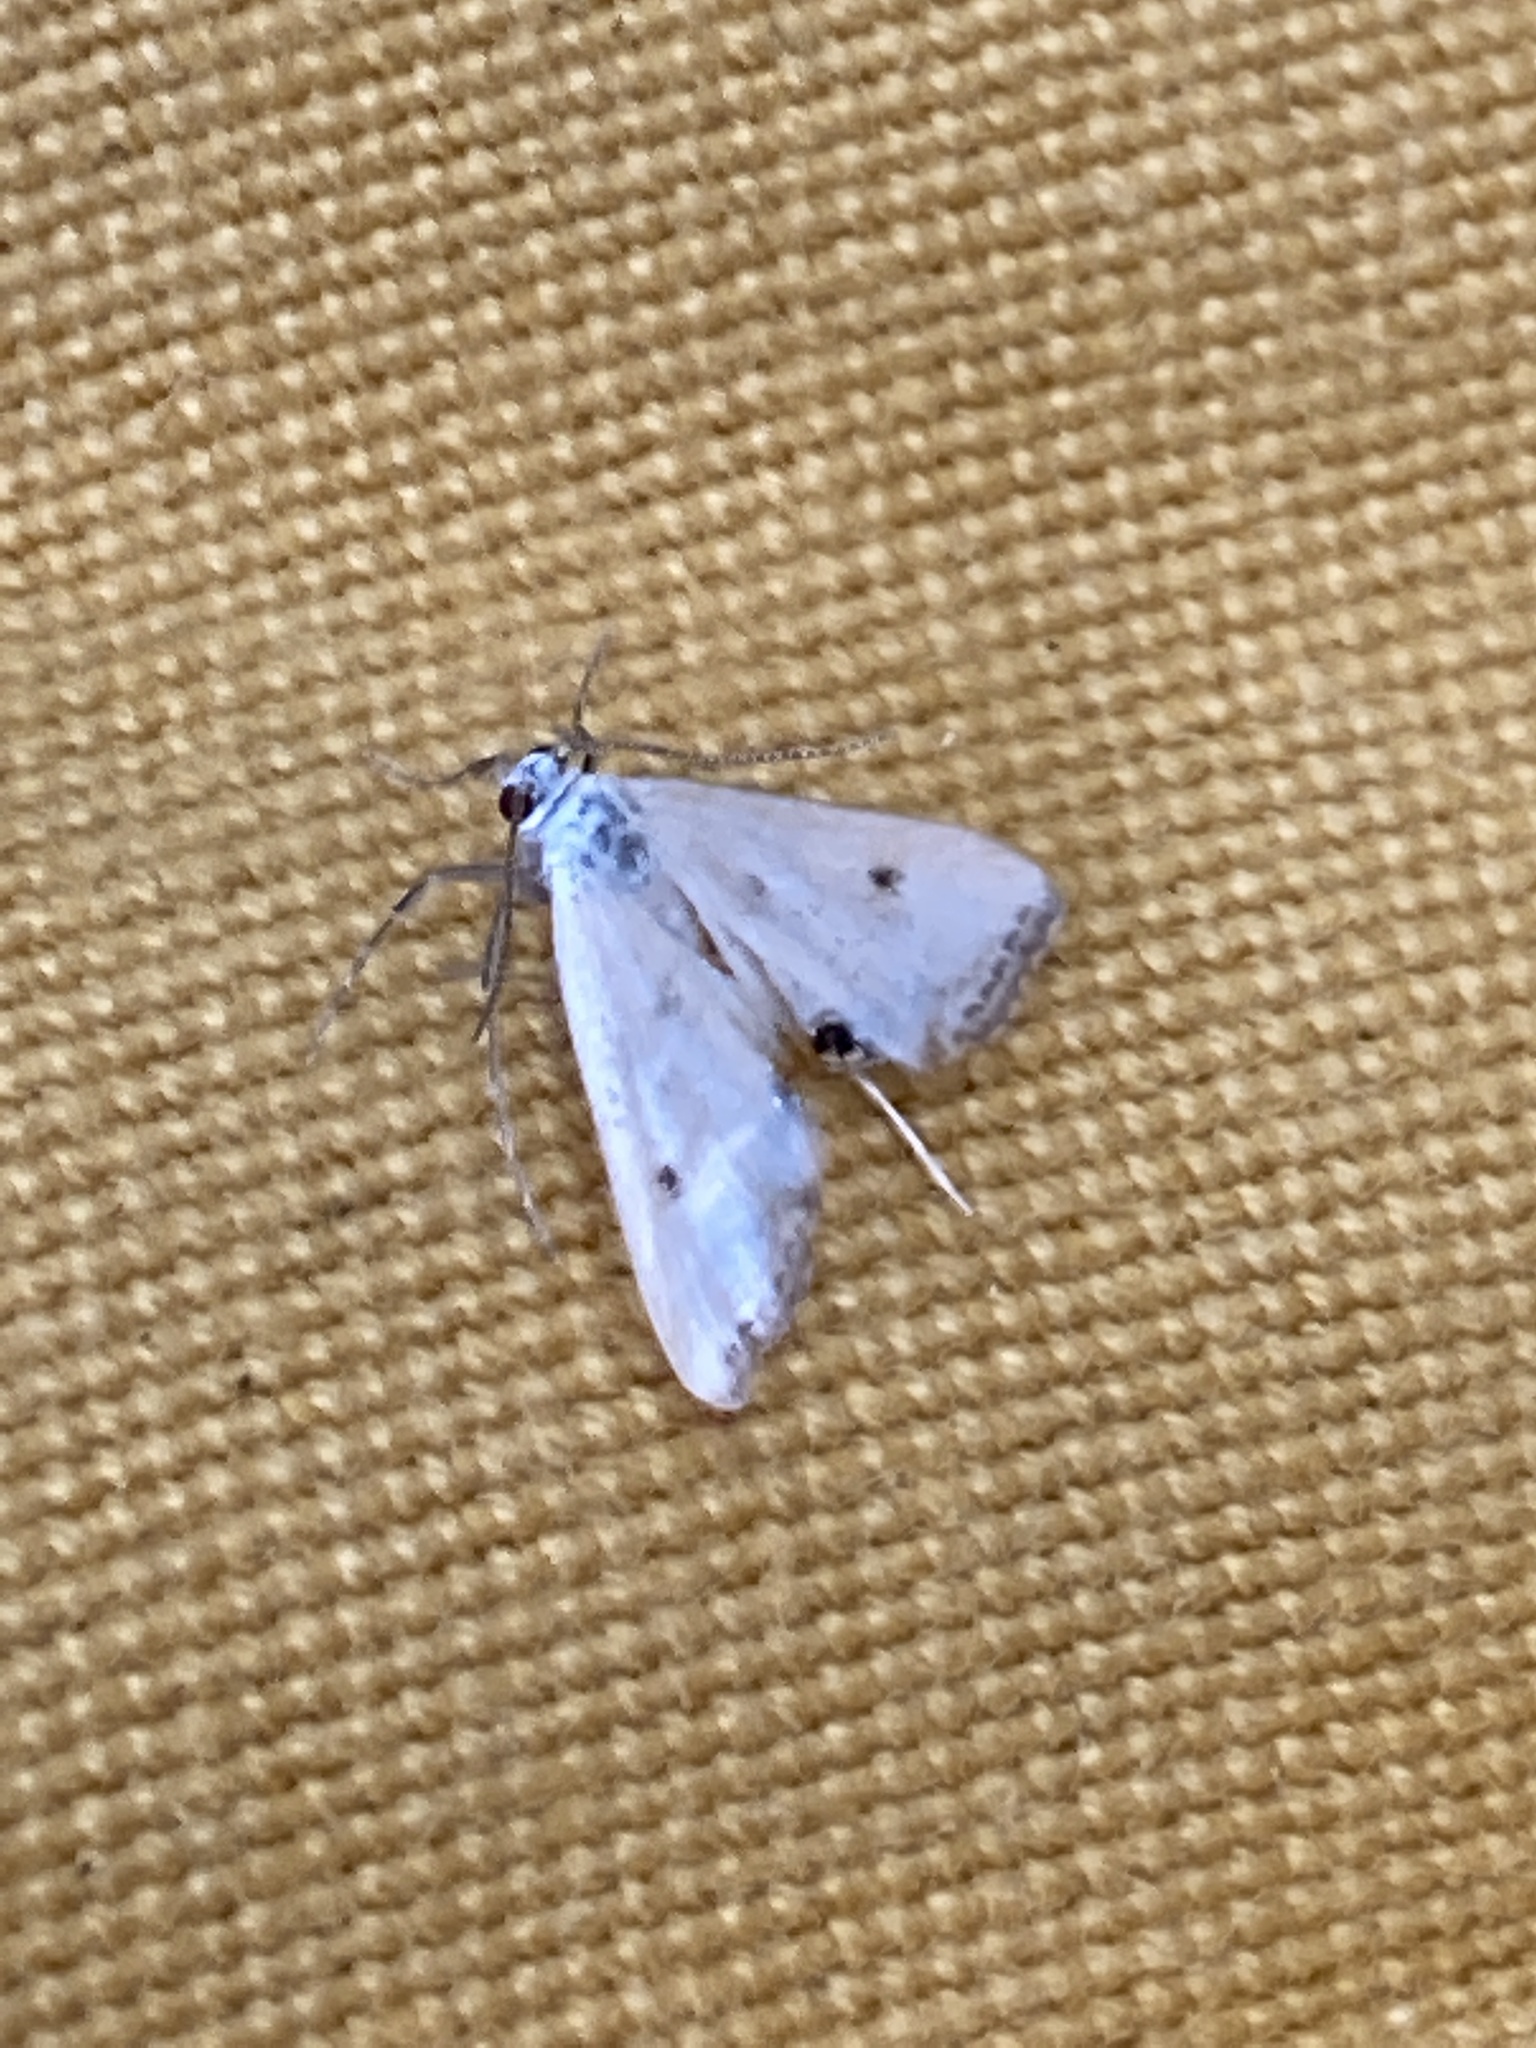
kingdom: Animalia
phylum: Arthropoda
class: Insecta
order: Lepidoptera
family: Crambidae
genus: Cataclysta
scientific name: Cataclysta lemnata
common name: Small china-mark
